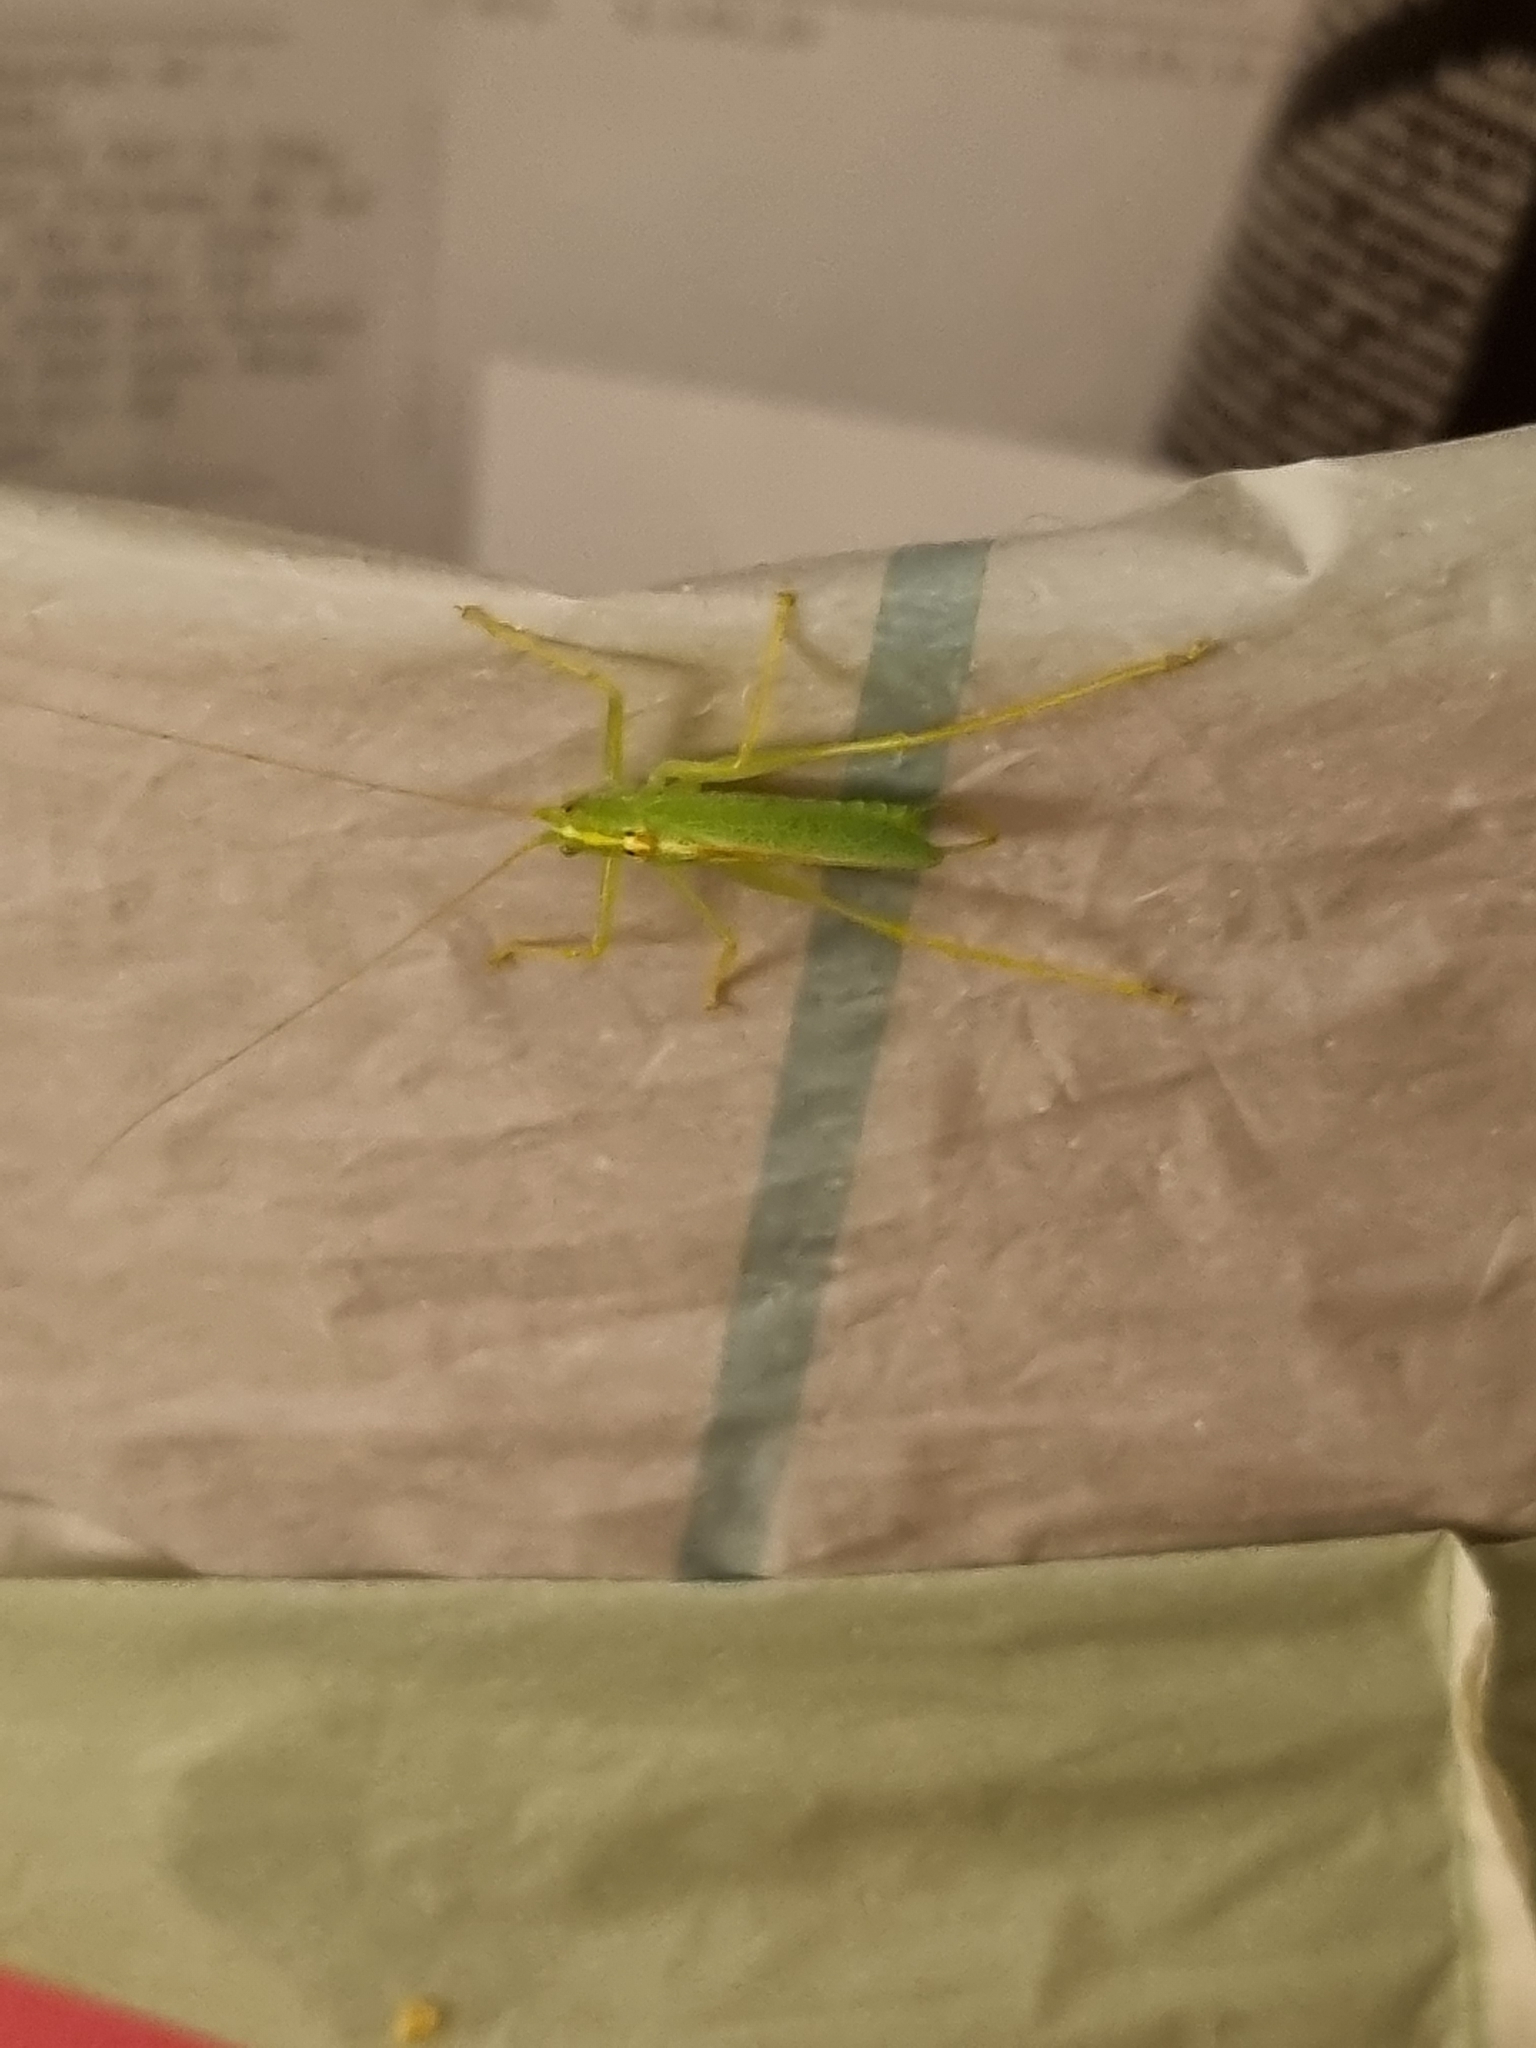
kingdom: Animalia
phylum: Arthropoda
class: Insecta
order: Orthoptera
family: Tettigoniidae
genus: Meconema
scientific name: Meconema thalassinum
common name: Oak bush-cricket
